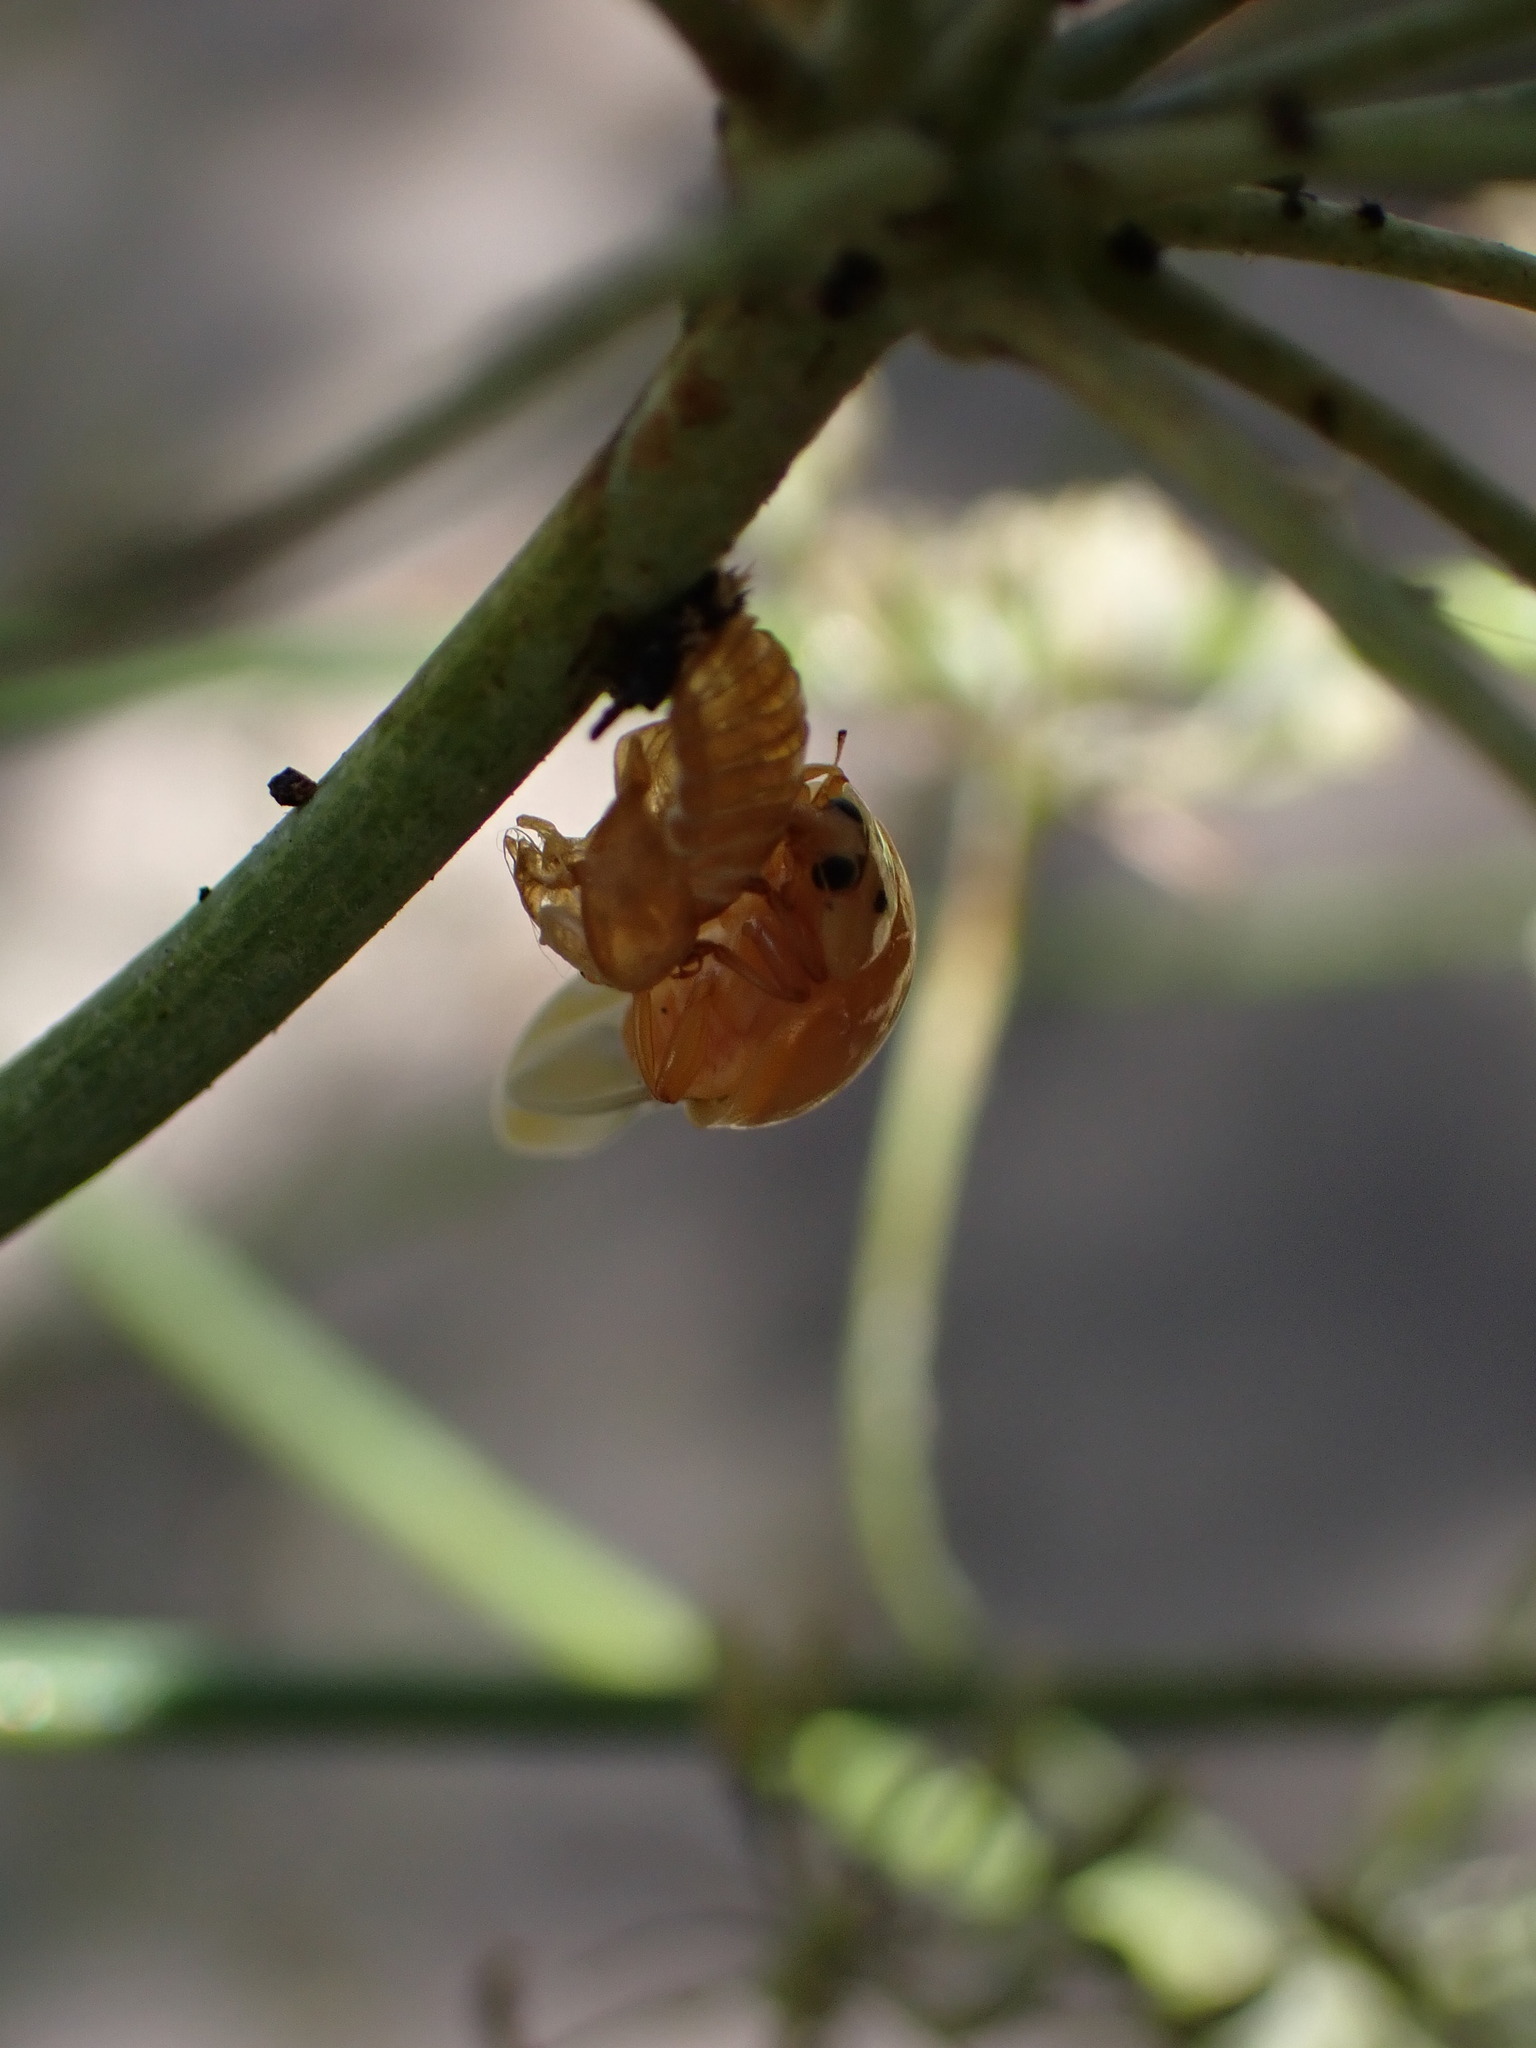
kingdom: Animalia
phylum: Arthropoda
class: Insecta
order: Coleoptera
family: Coccinellidae
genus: Harmonia
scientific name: Harmonia axyridis
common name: Harlequin ladybird
